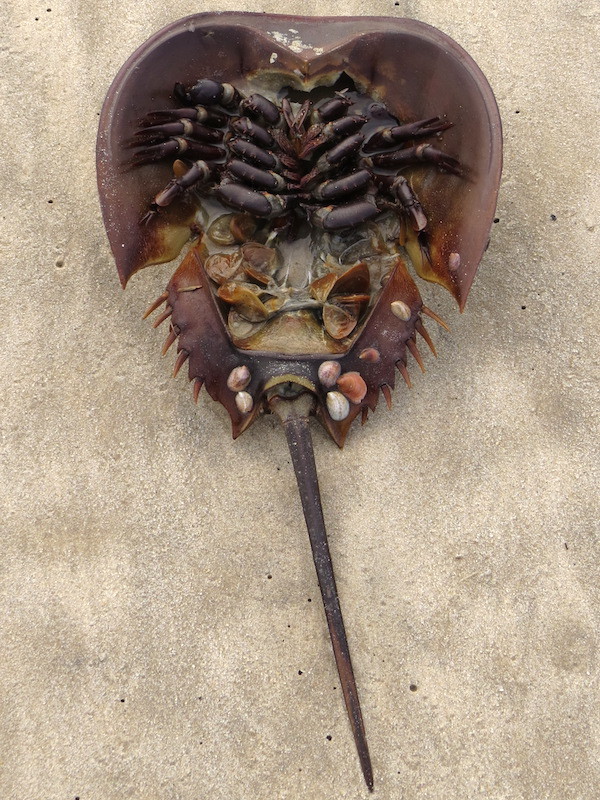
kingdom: Animalia
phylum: Arthropoda
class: Merostomata
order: Xiphosurida
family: Limulidae
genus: Limulus
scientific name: Limulus polyphemus
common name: Horseshoe crab
